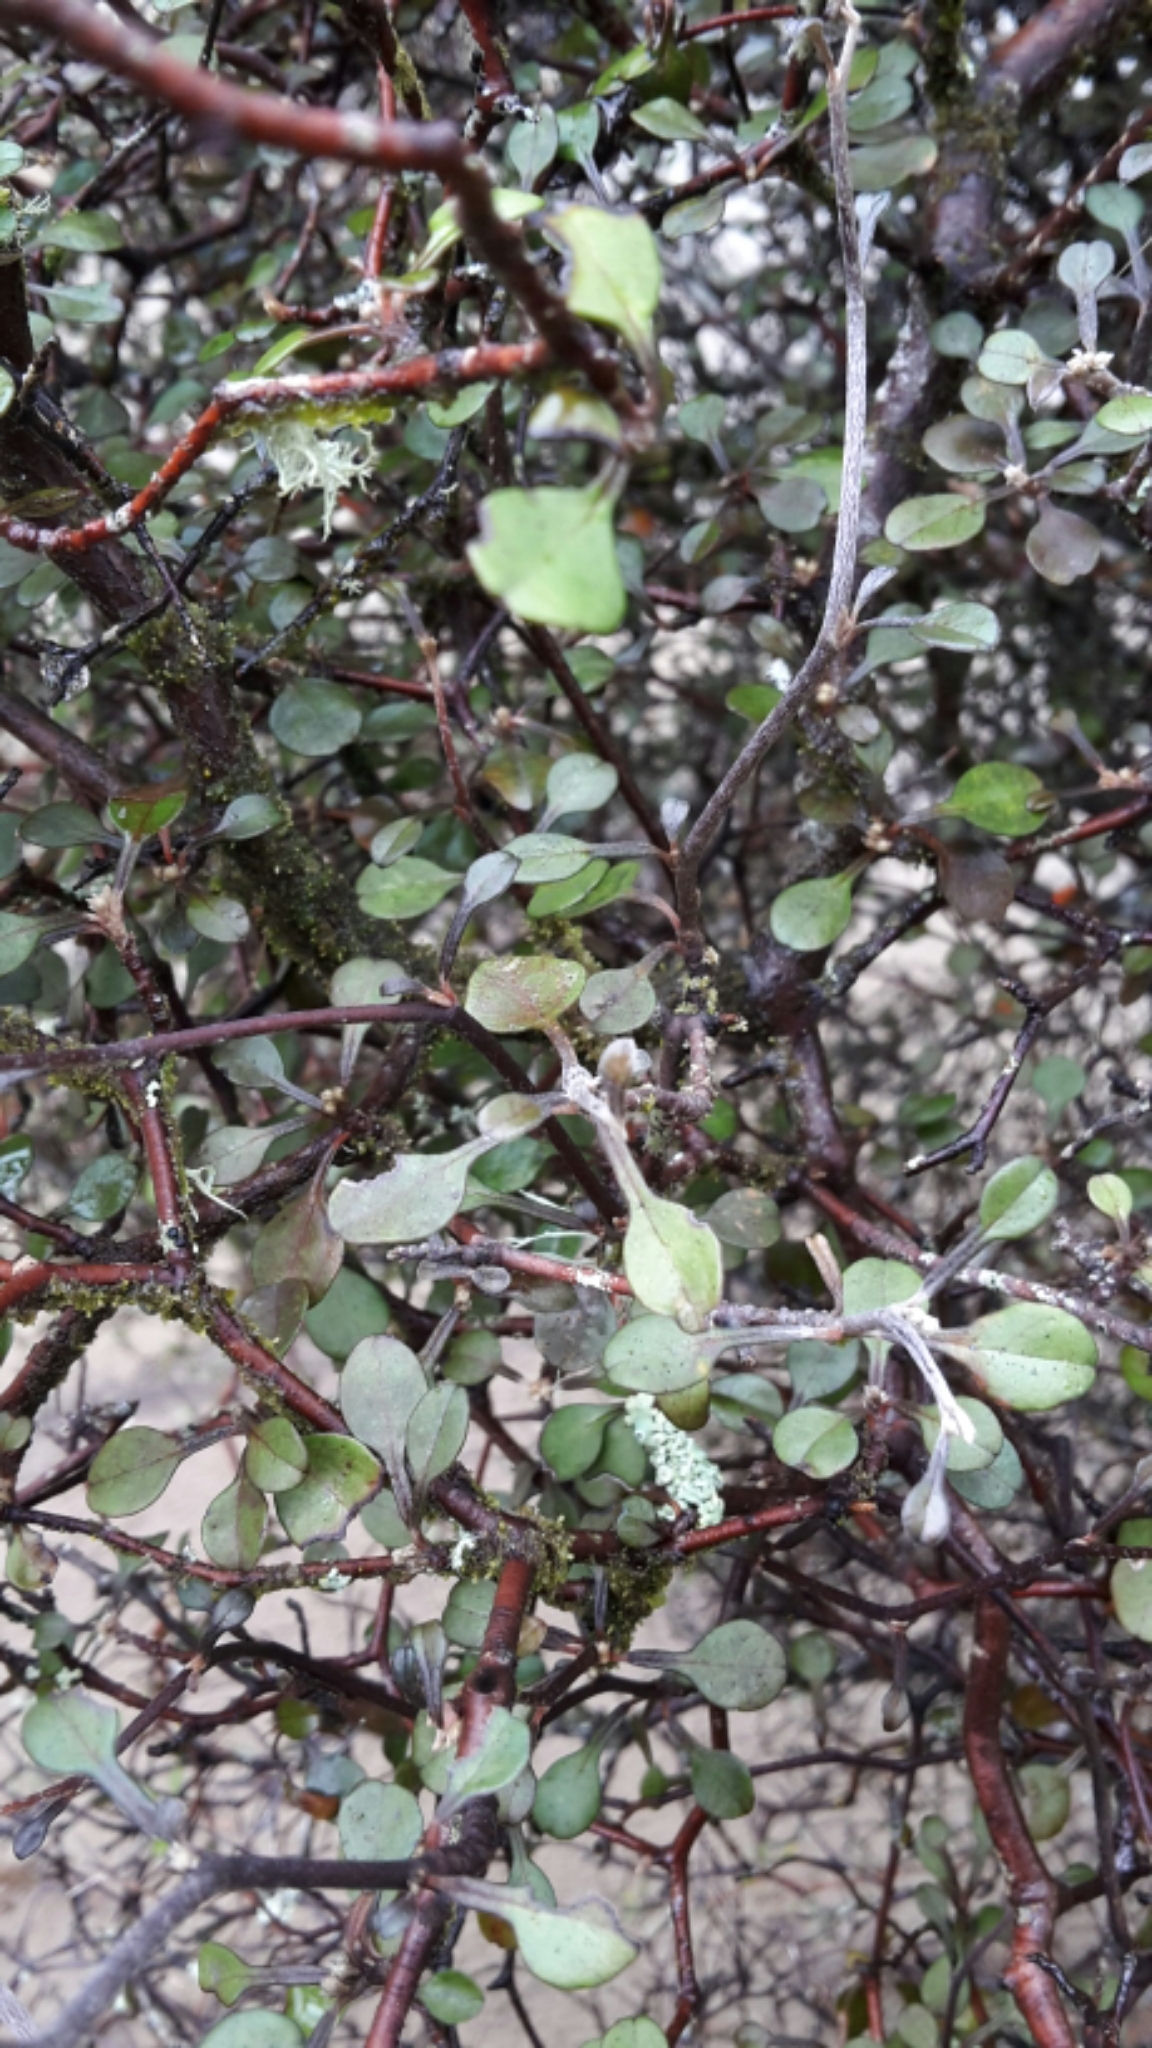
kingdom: Plantae
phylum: Tracheophyta
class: Magnoliopsida
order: Asterales
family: Argophyllaceae
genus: Corokia
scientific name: Corokia cotoneaster
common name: Wire nettingbush
